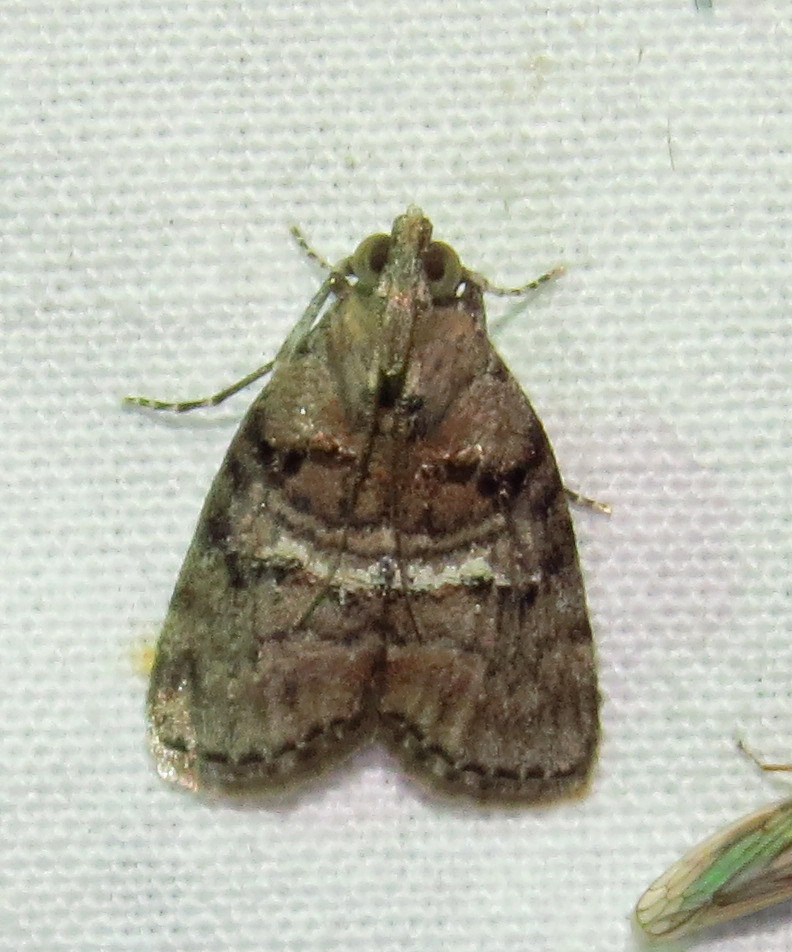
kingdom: Animalia
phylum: Arthropoda
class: Insecta
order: Lepidoptera
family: Pyralidae
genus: Pococera
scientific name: Pococera asperatella
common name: Maple webworm moth
